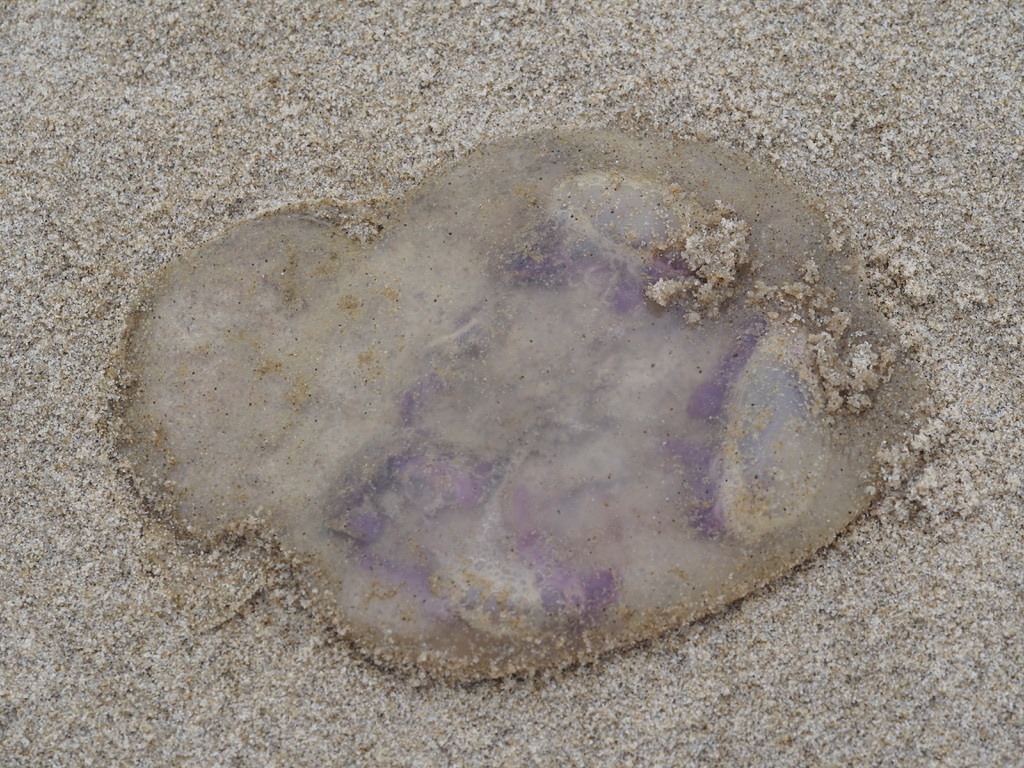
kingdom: Animalia
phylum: Cnidaria
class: Scyphozoa
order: Semaeostomeae
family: Ulmaridae
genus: Aurelia
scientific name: Aurelia aurita
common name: Moon jellyfish
